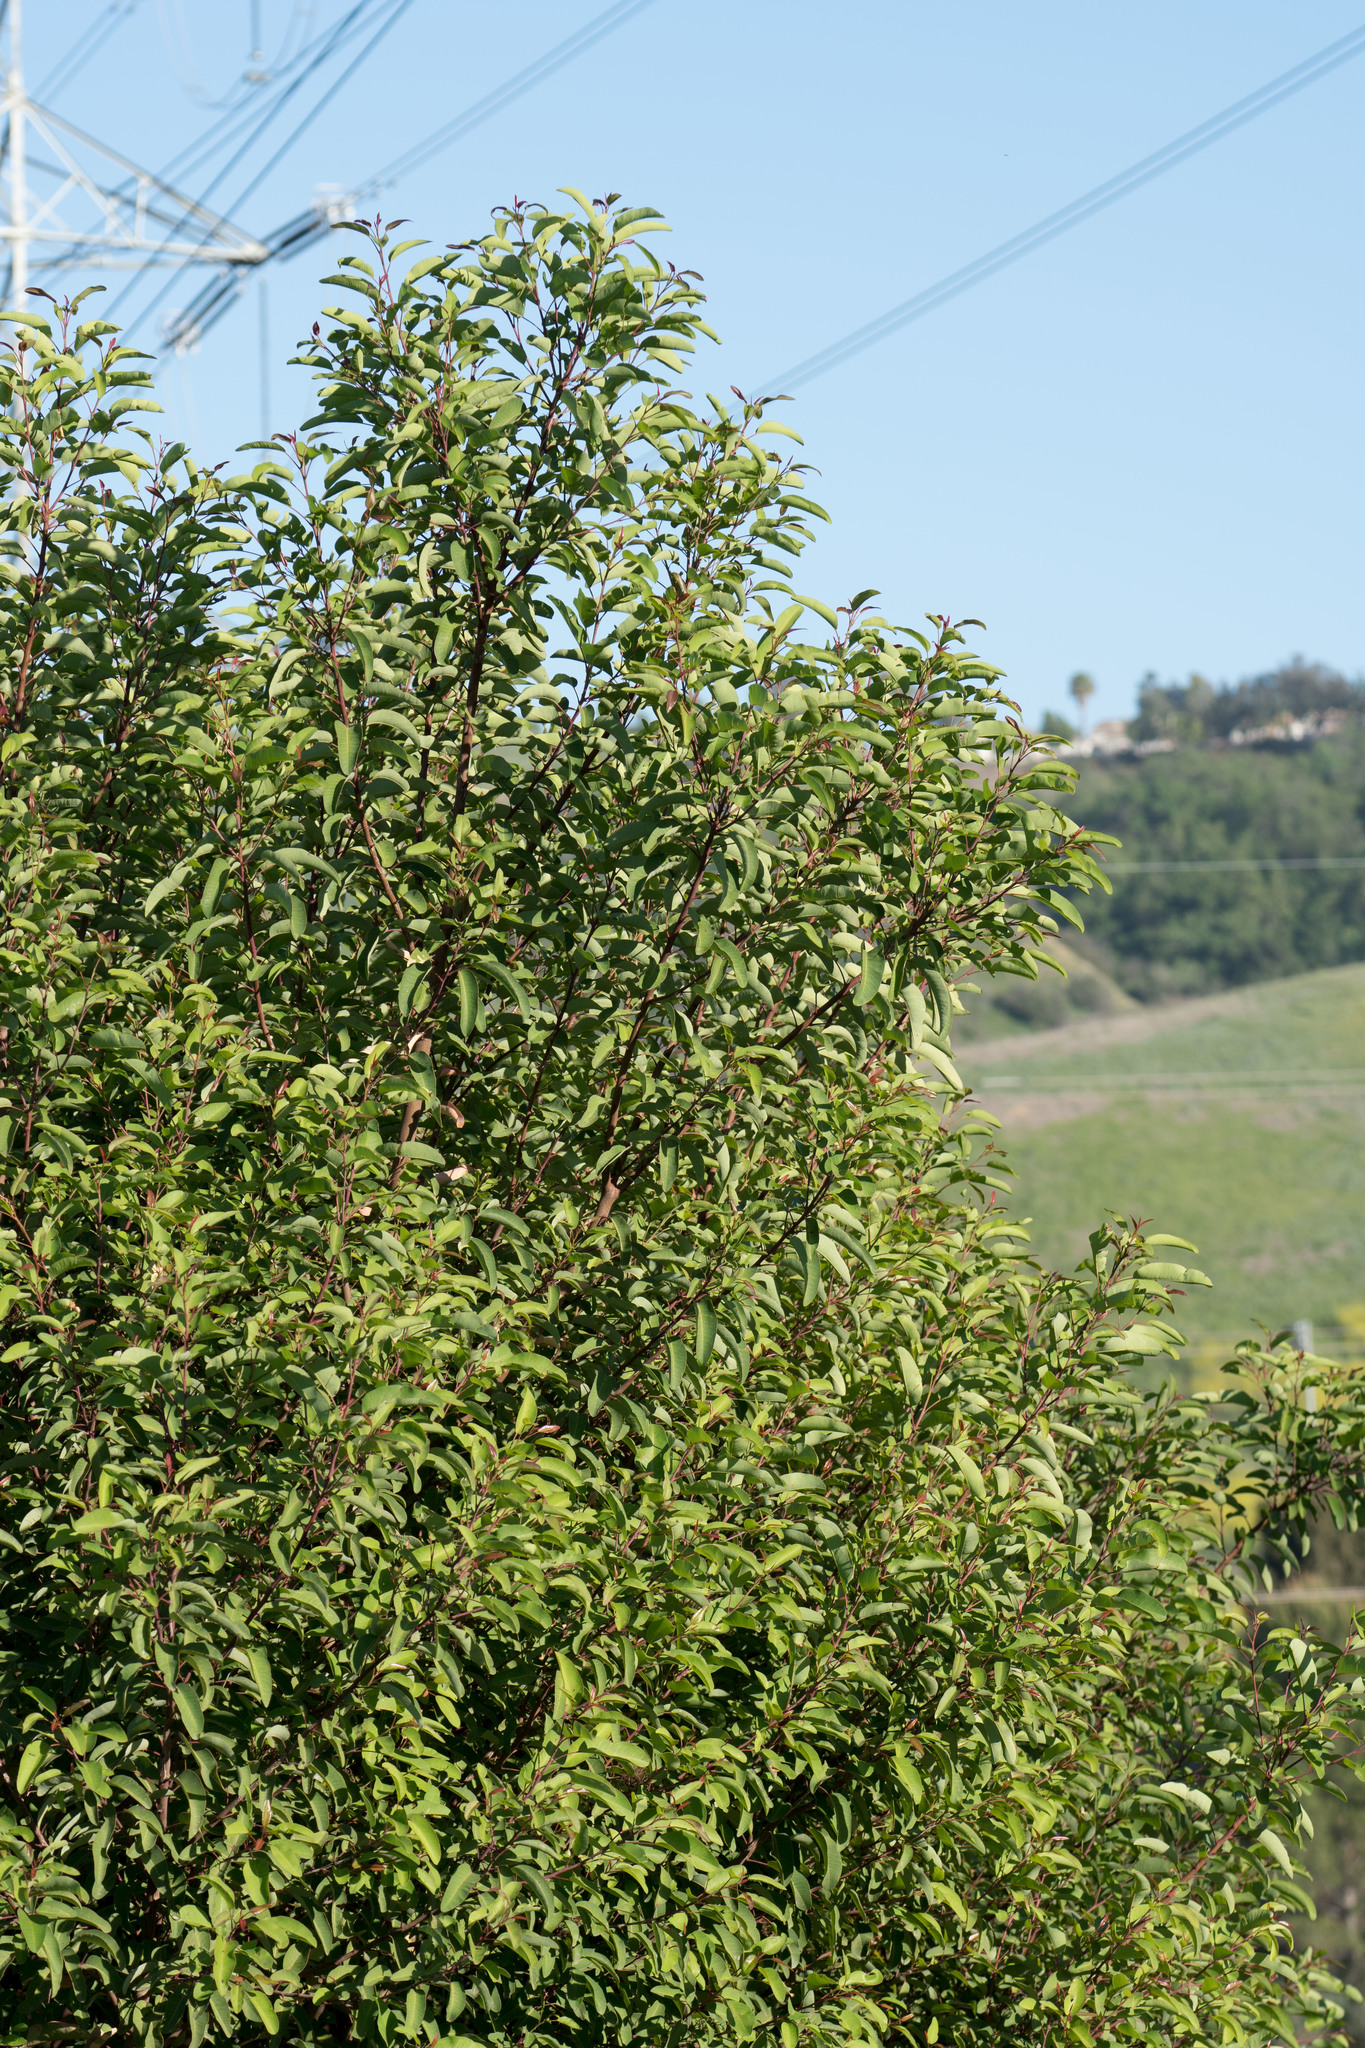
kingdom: Plantae
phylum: Tracheophyta
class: Magnoliopsida
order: Sapindales
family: Anacardiaceae
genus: Malosma
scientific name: Malosma laurina
